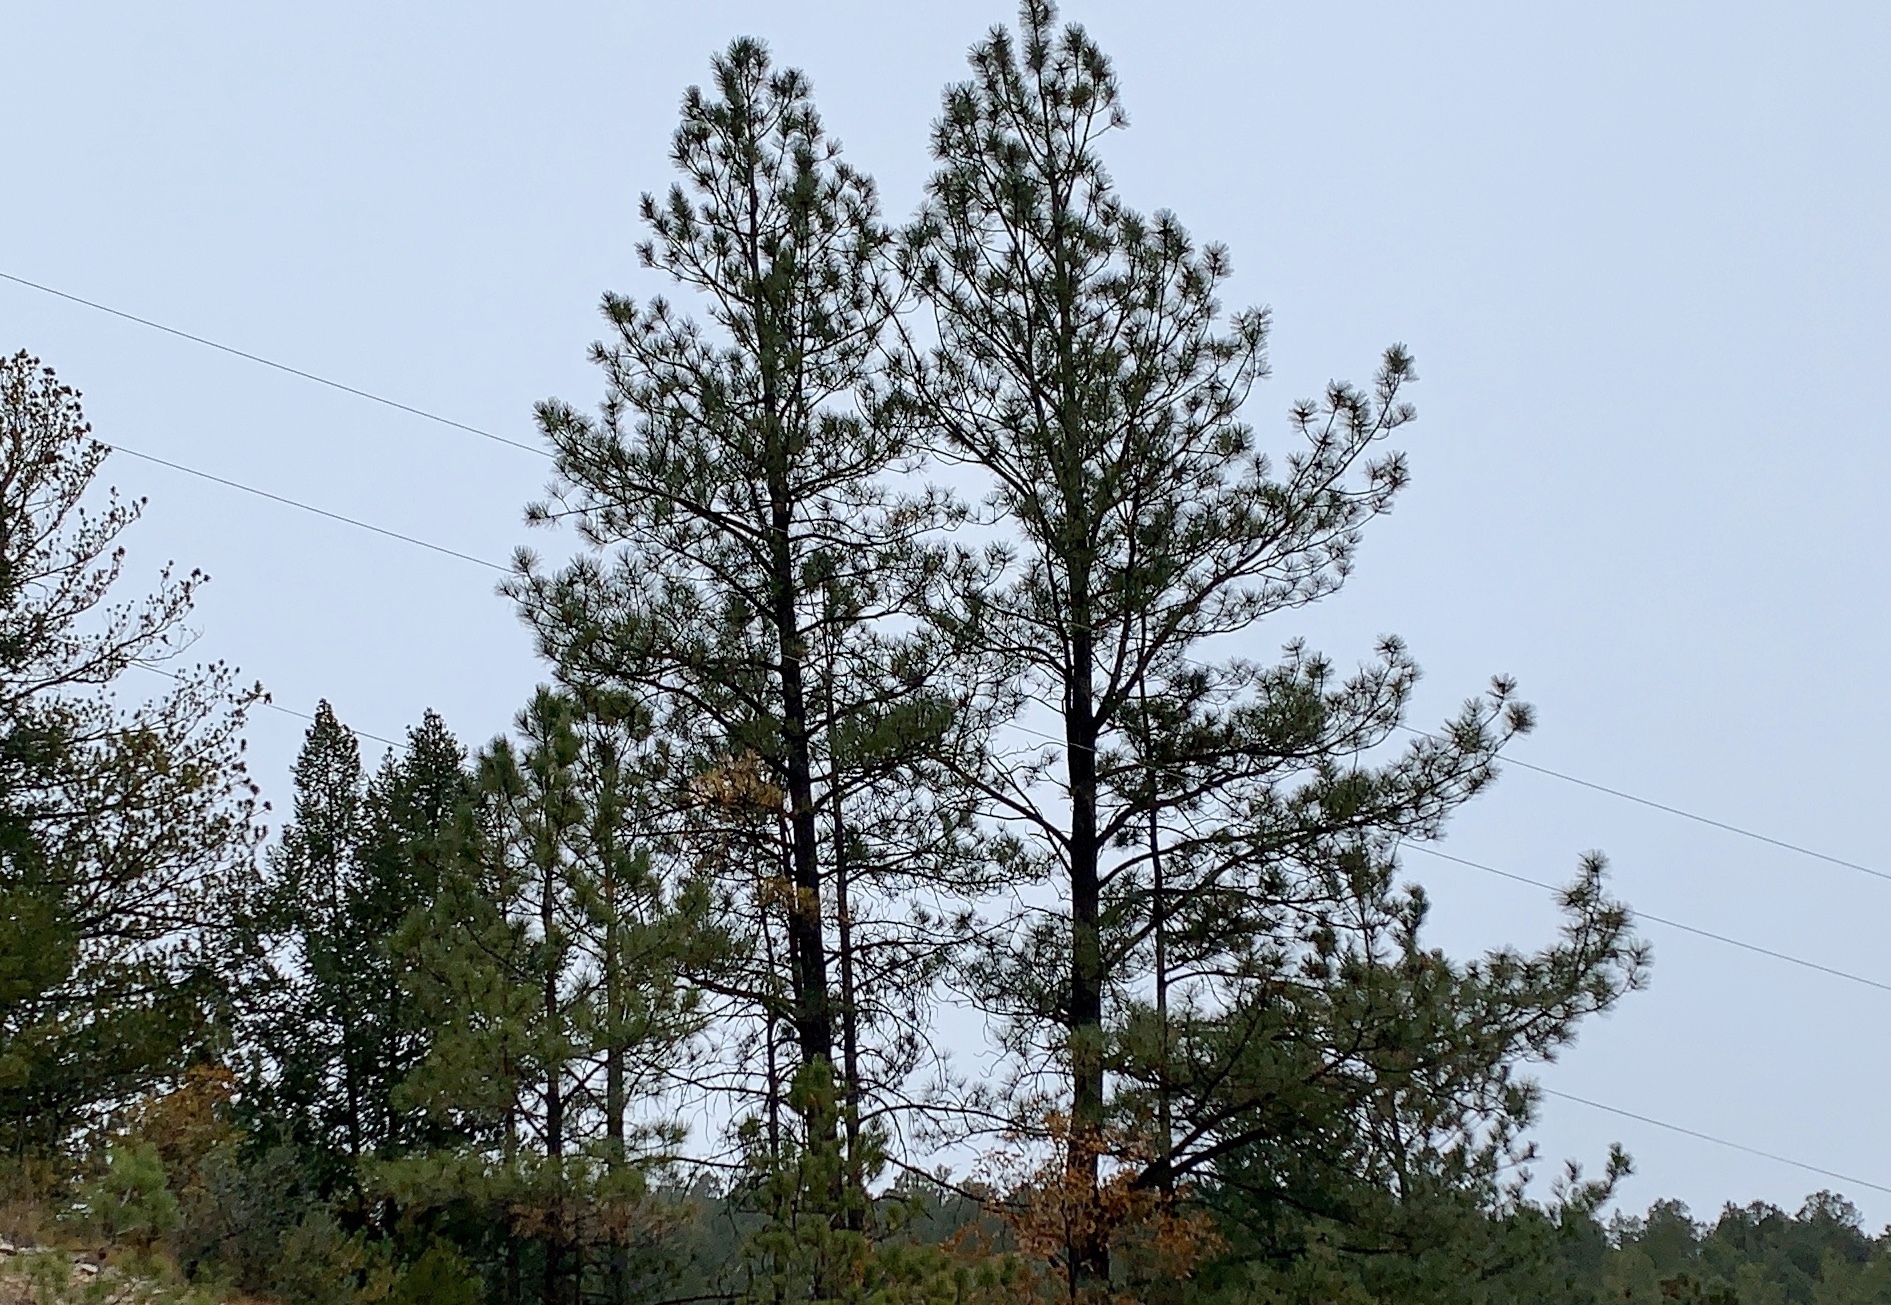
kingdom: Plantae
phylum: Tracheophyta
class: Pinopsida
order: Pinales
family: Pinaceae
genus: Pinus
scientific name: Pinus ponderosa
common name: Western yellow-pine
